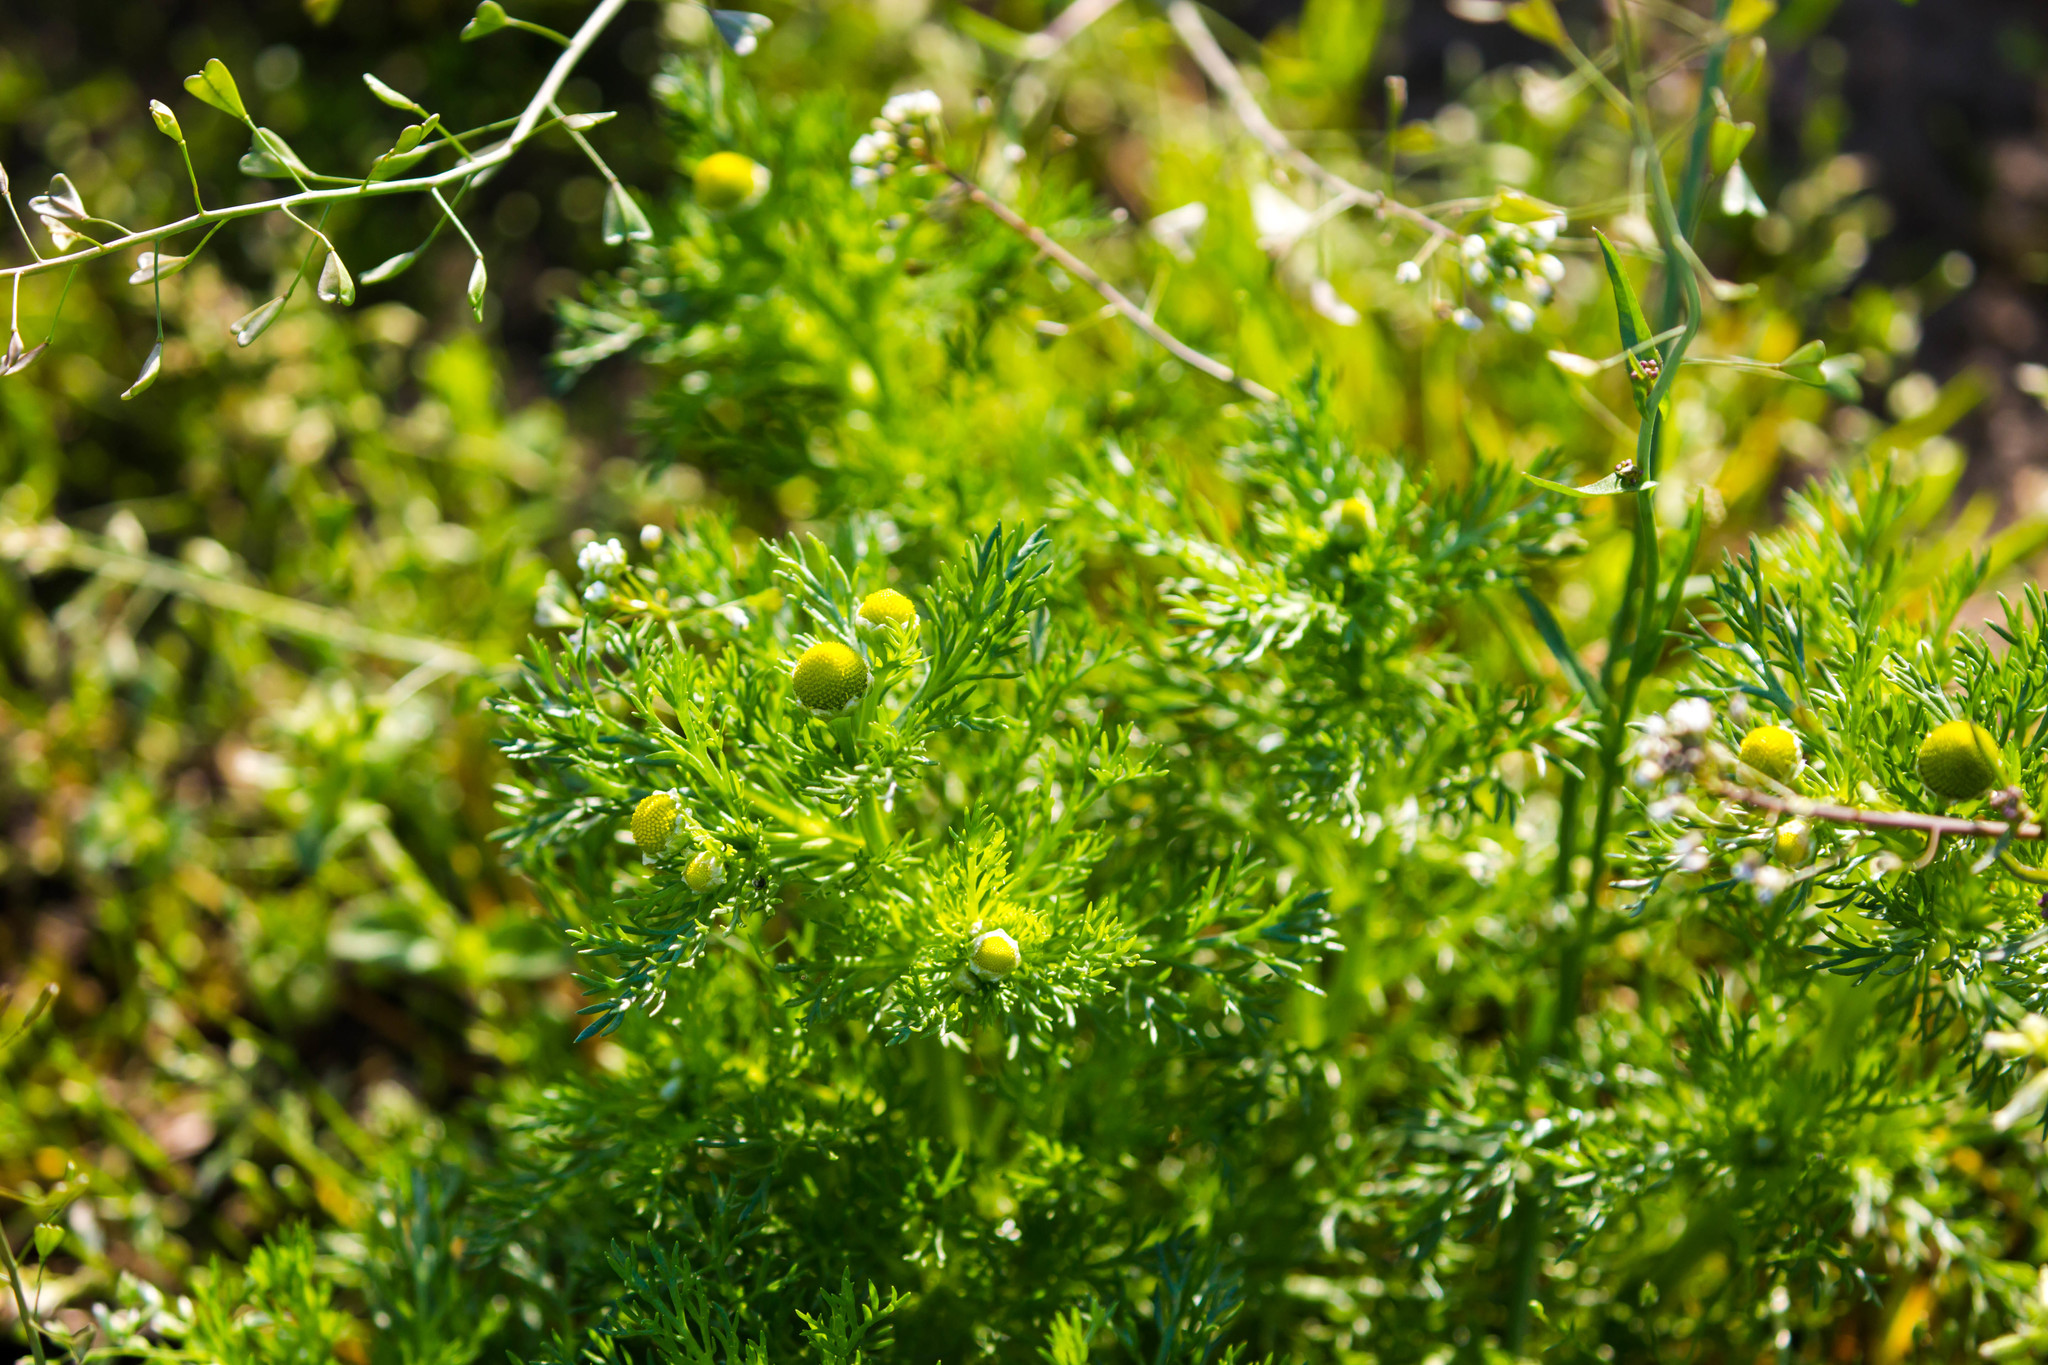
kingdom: Plantae
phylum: Tracheophyta
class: Magnoliopsida
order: Asterales
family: Asteraceae
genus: Matricaria
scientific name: Matricaria discoidea
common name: Disc mayweed
